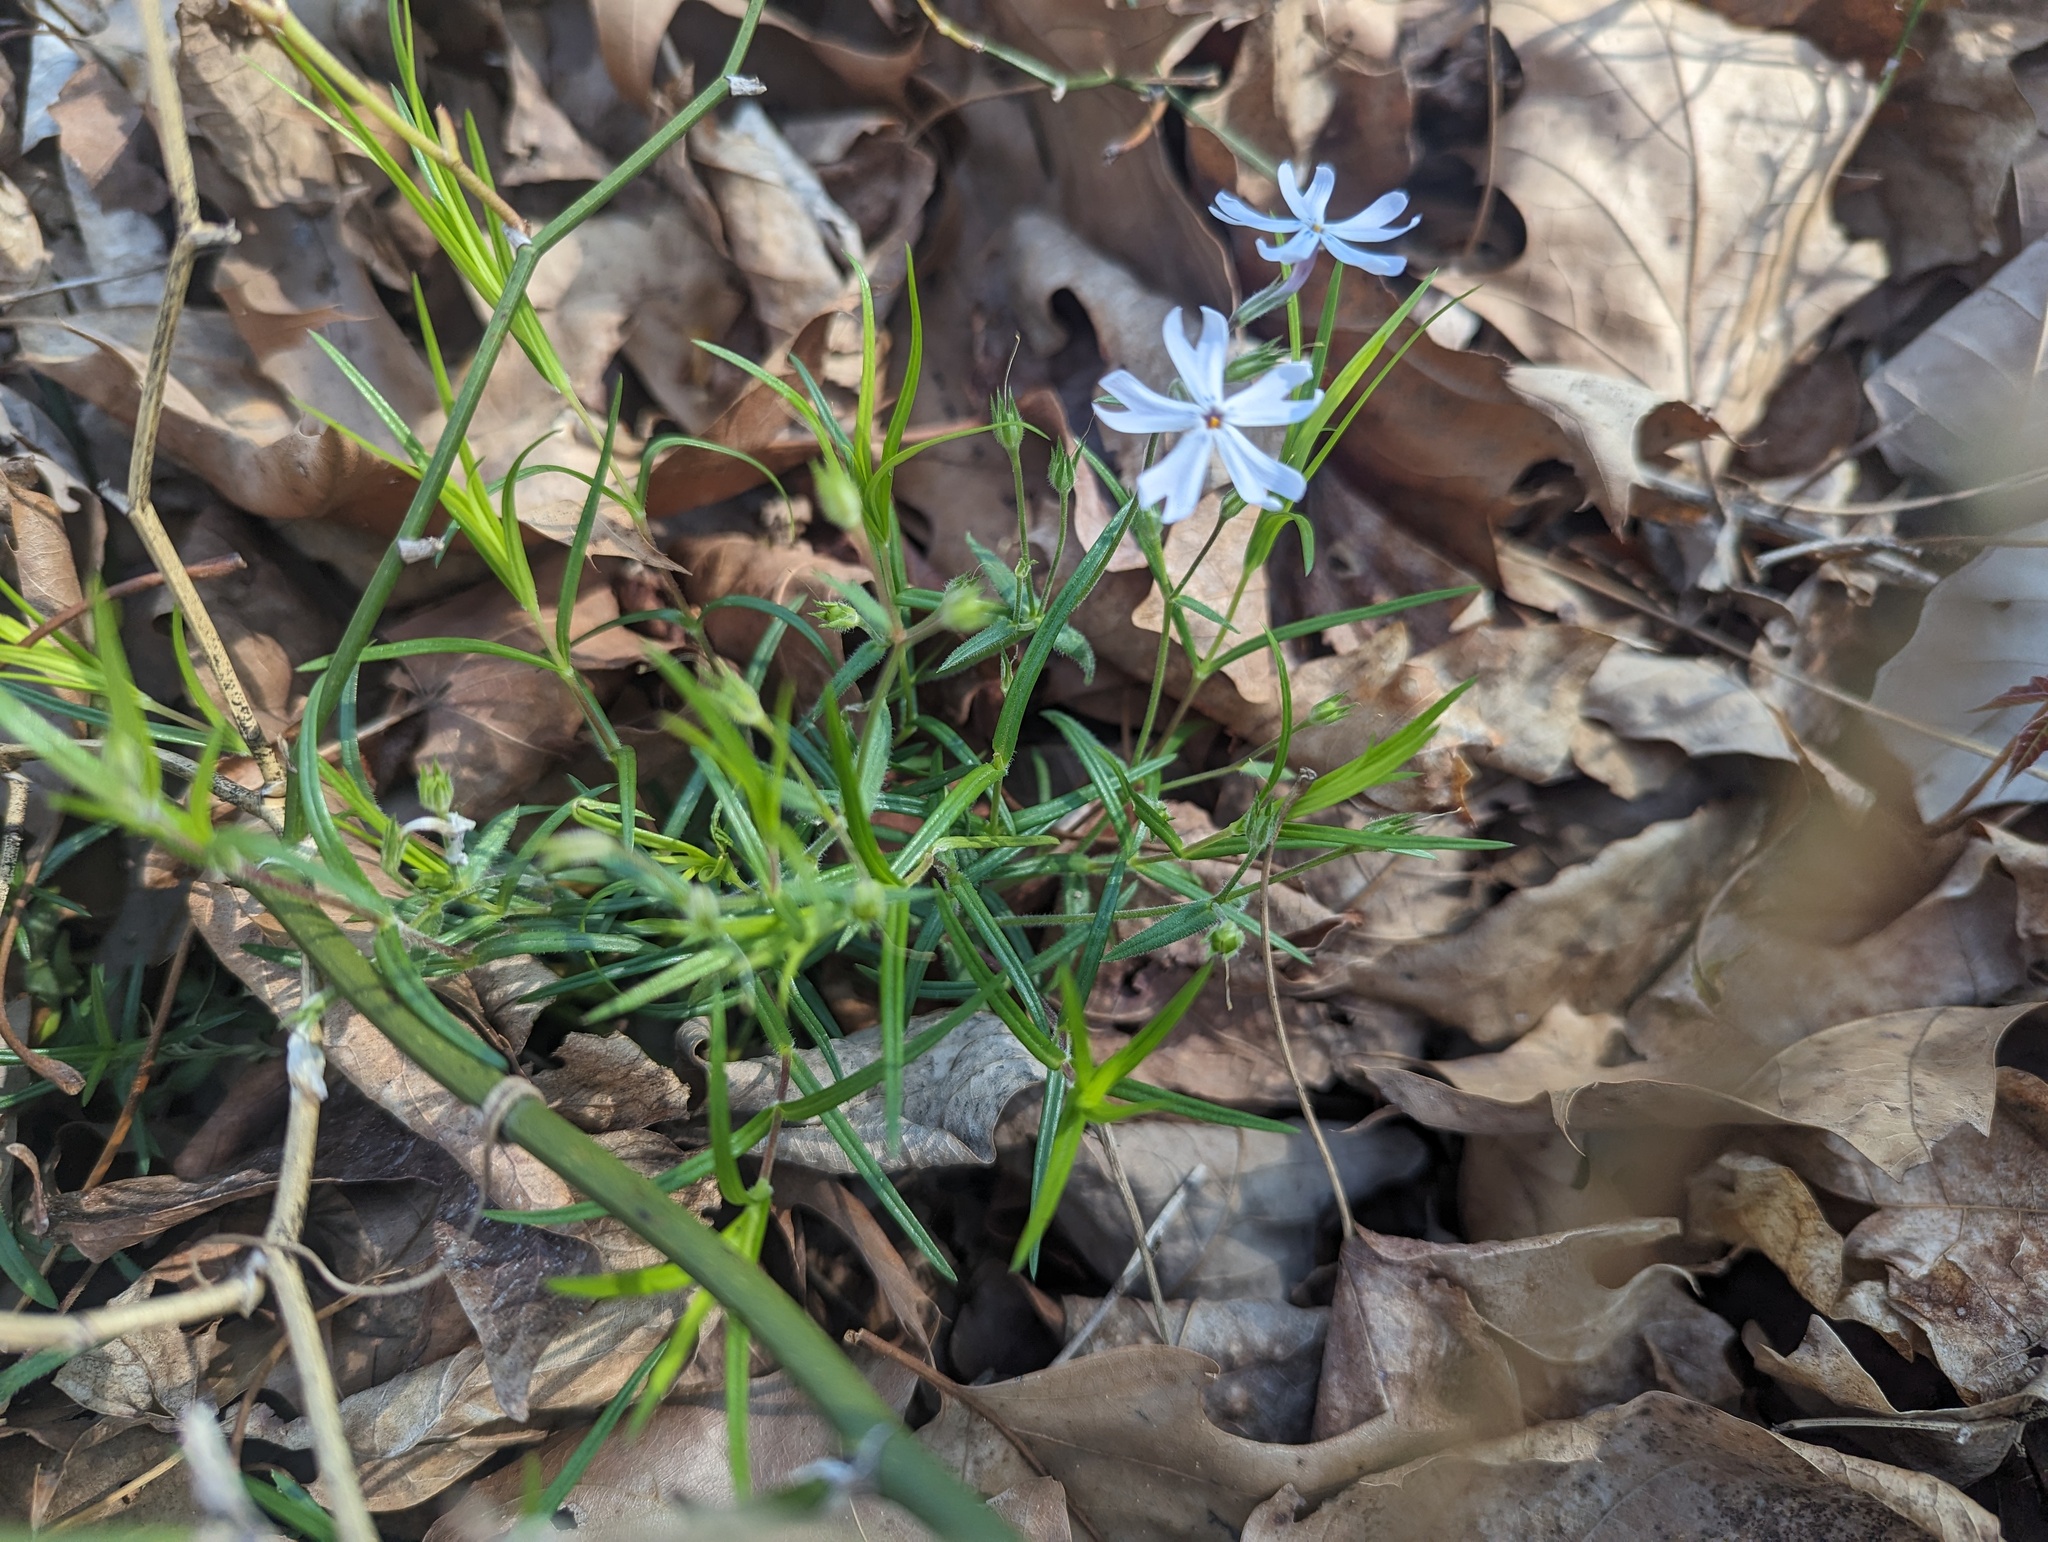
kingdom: Plantae
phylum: Tracheophyta
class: Magnoliopsida
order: Ericales
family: Polemoniaceae
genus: Phlox
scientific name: Phlox bifida
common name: Sand phlox
